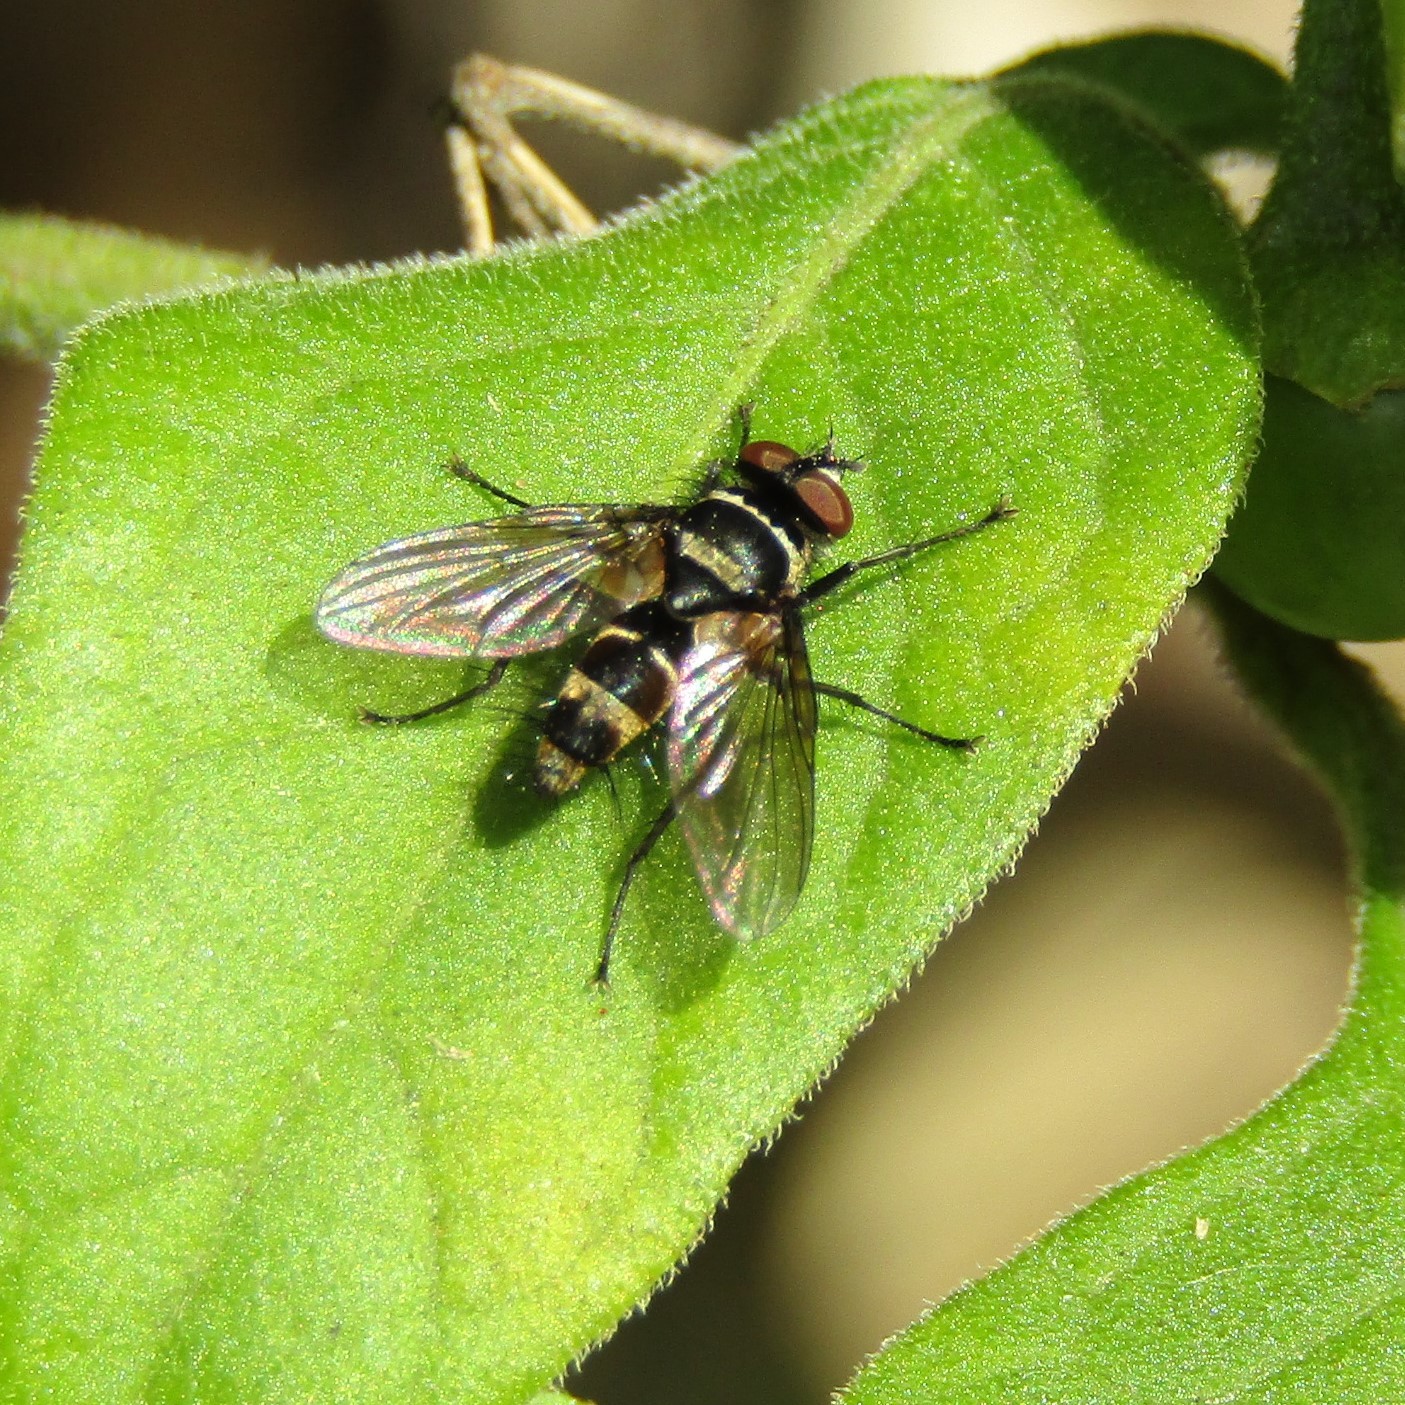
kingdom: Animalia
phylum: Arthropoda
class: Insecta
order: Diptera
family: Tachinidae
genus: Trigonospila
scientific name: Trigonospila brevifacies
